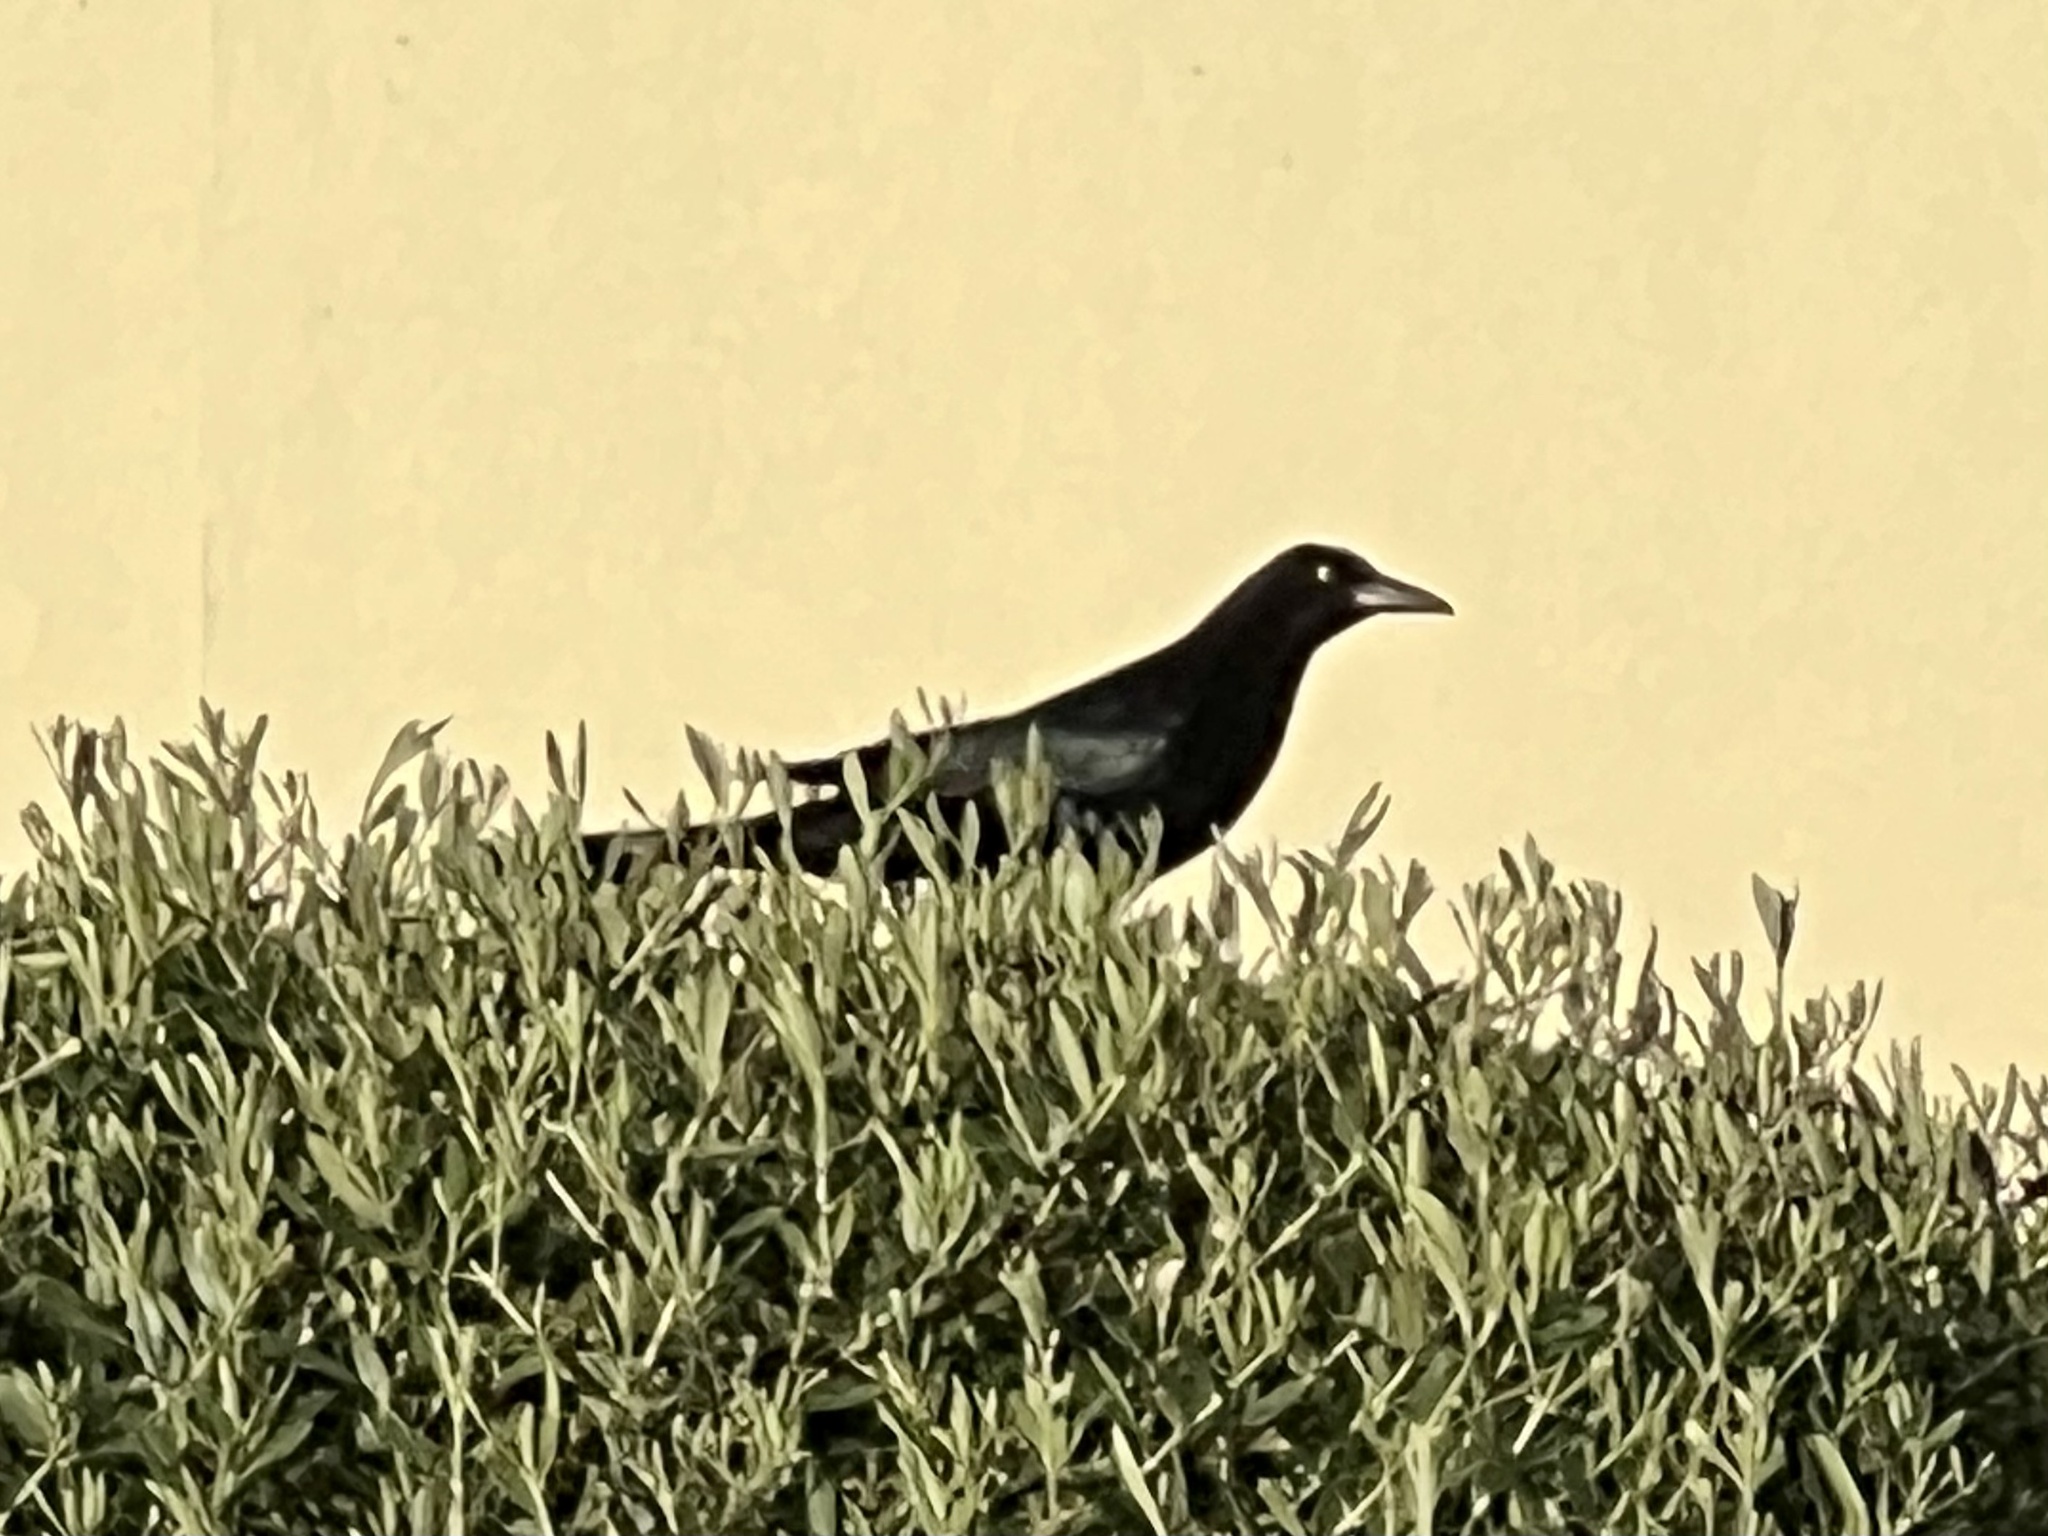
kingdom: Animalia
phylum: Chordata
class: Aves
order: Passeriformes
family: Icteridae
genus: Quiscalus
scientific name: Quiscalus mexicanus
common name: Great-tailed grackle
